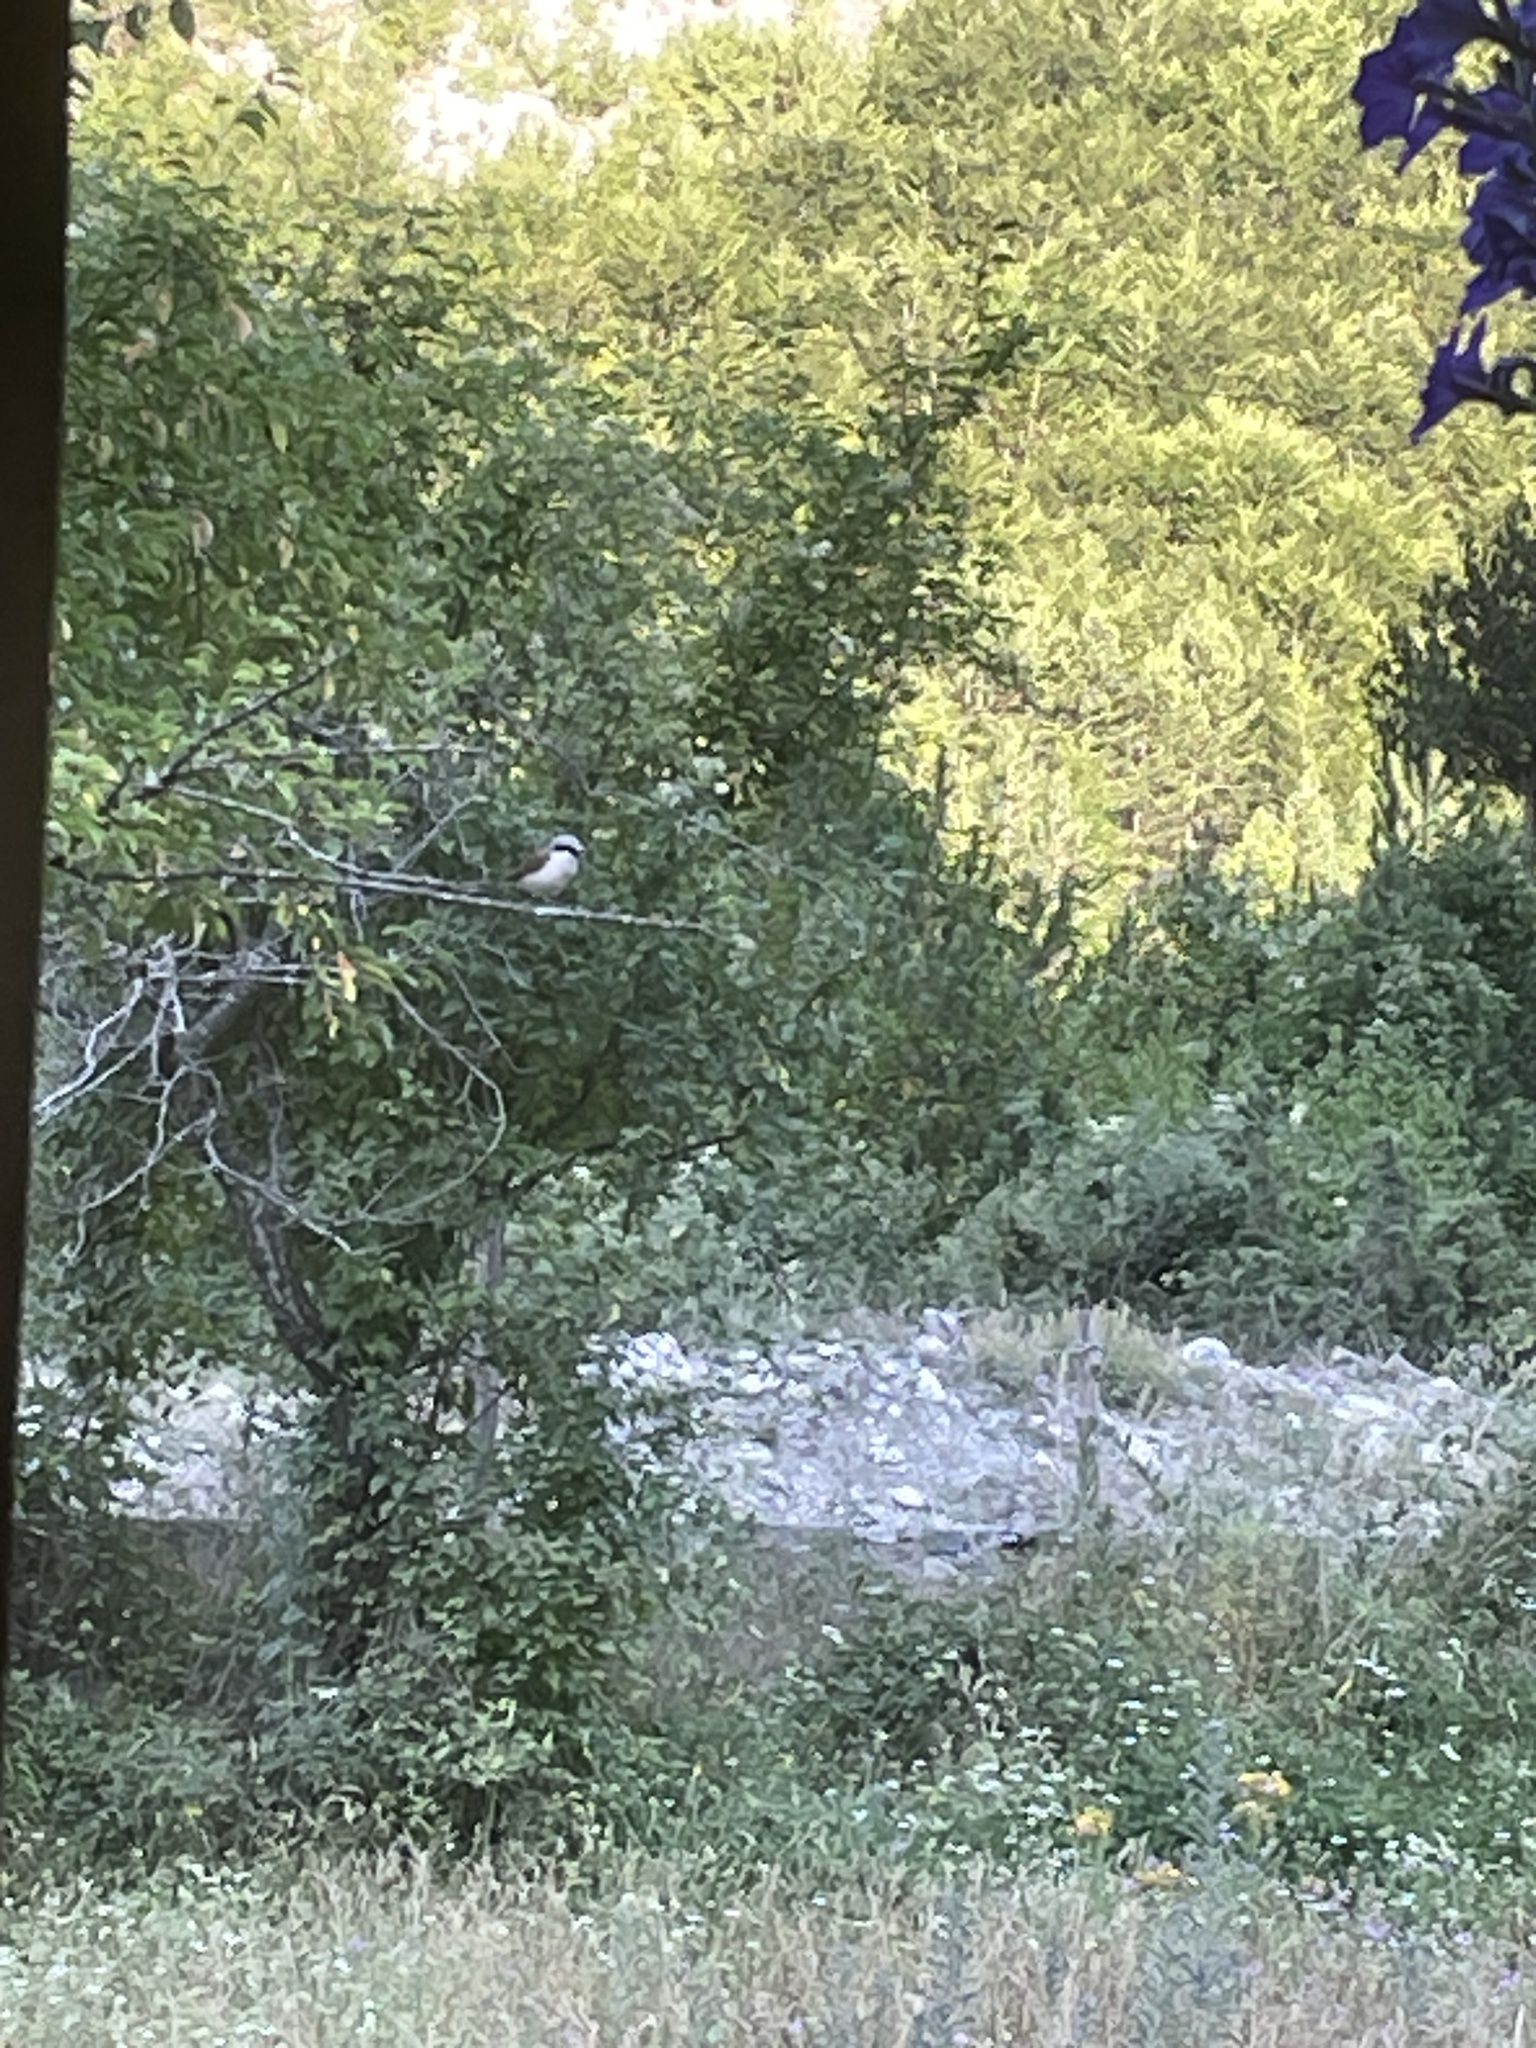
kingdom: Animalia
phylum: Chordata
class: Aves
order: Passeriformes
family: Laniidae
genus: Lanius
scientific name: Lanius collurio
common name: Red-backed shrike
